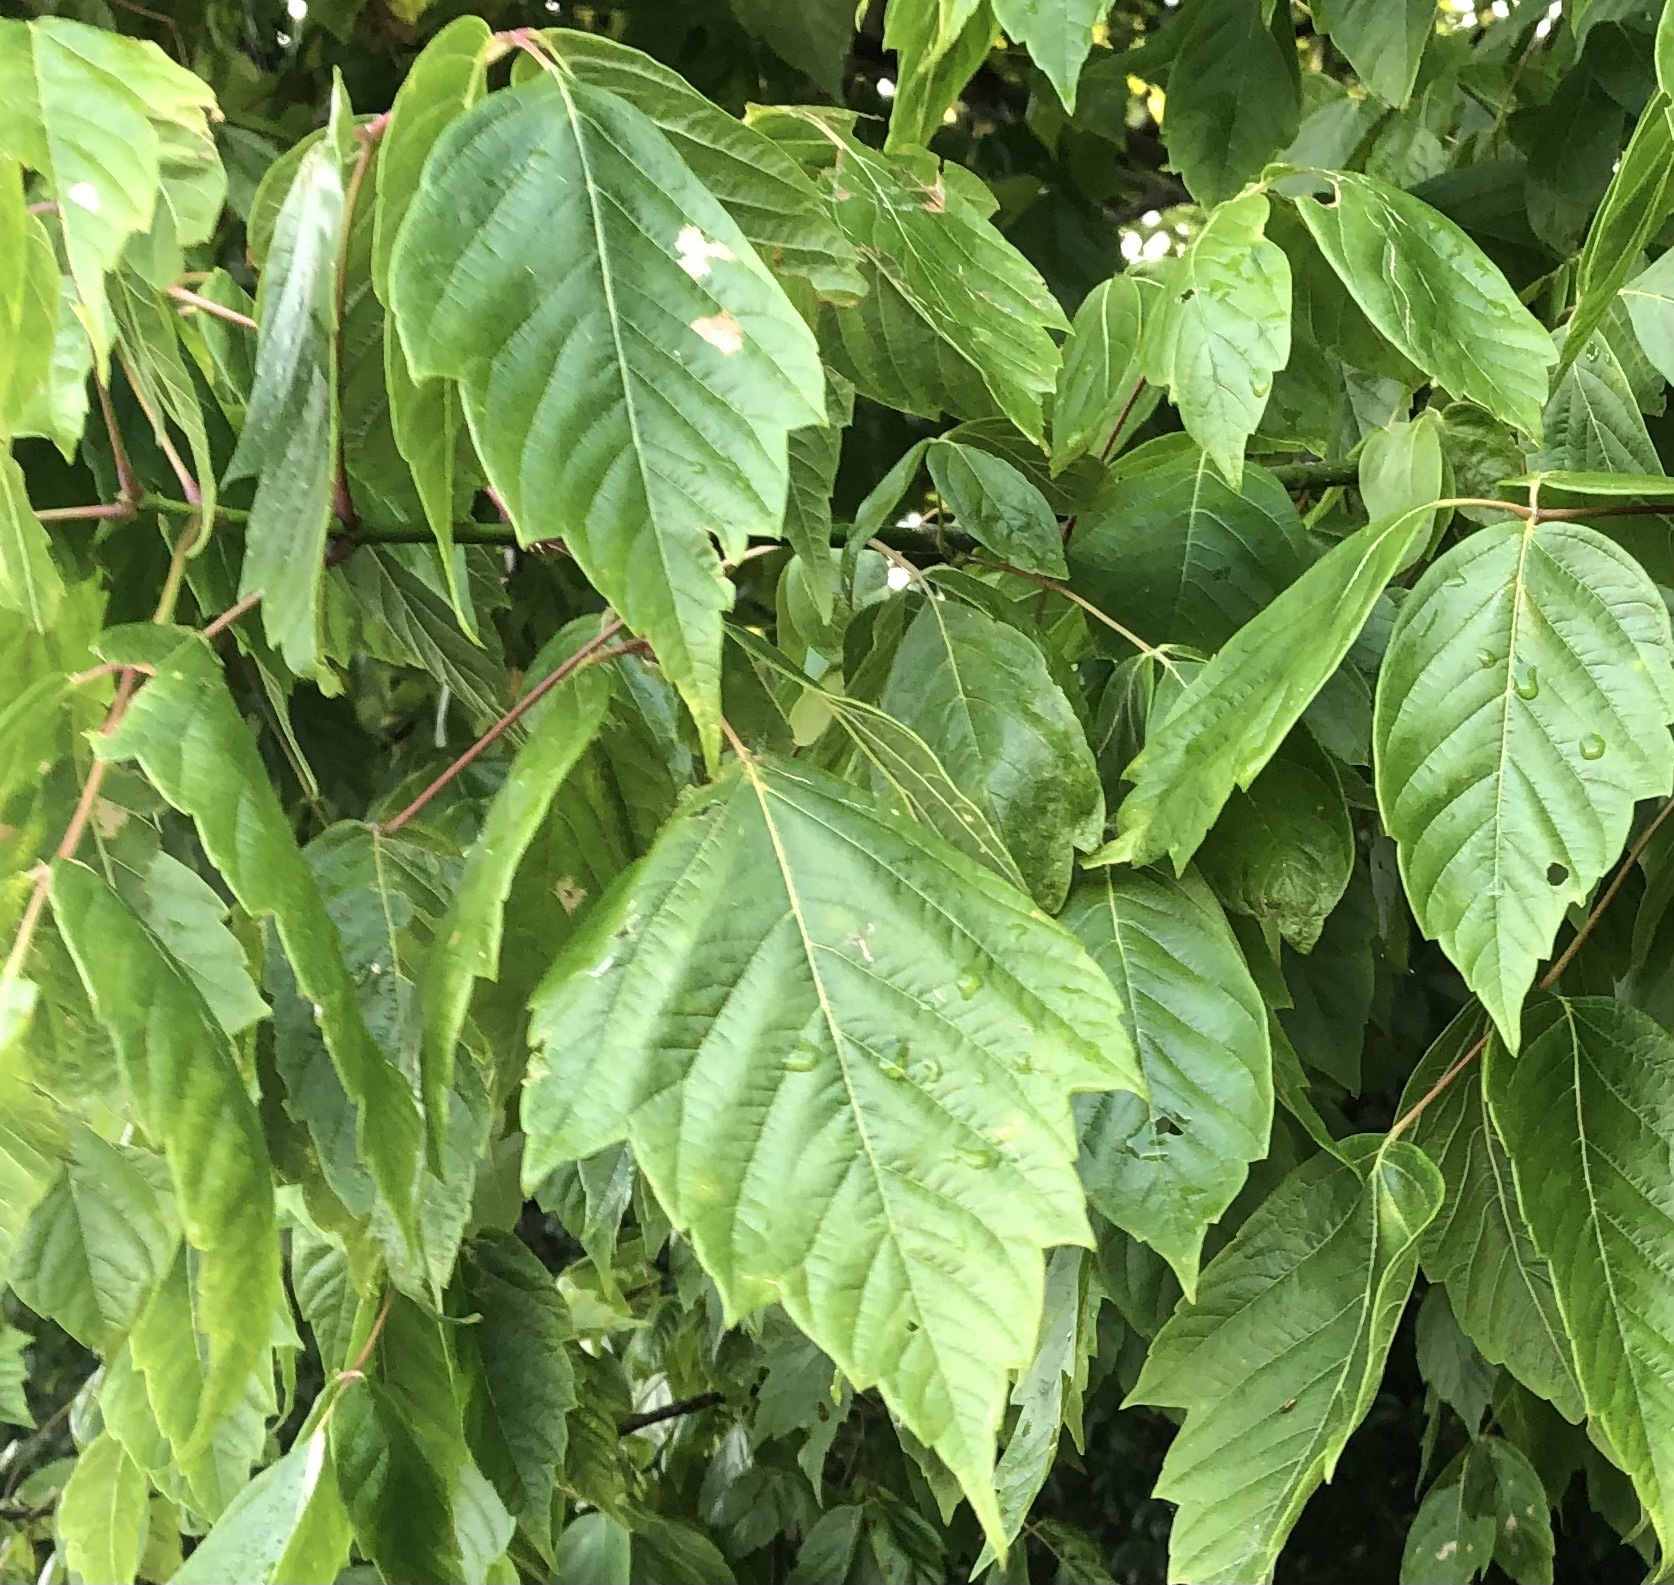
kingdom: Plantae
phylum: Tracheophyta
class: Magnoliopsida
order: Sapindales
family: Sapindaceae
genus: Acer
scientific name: Acer negundo
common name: Ashleaf maple
